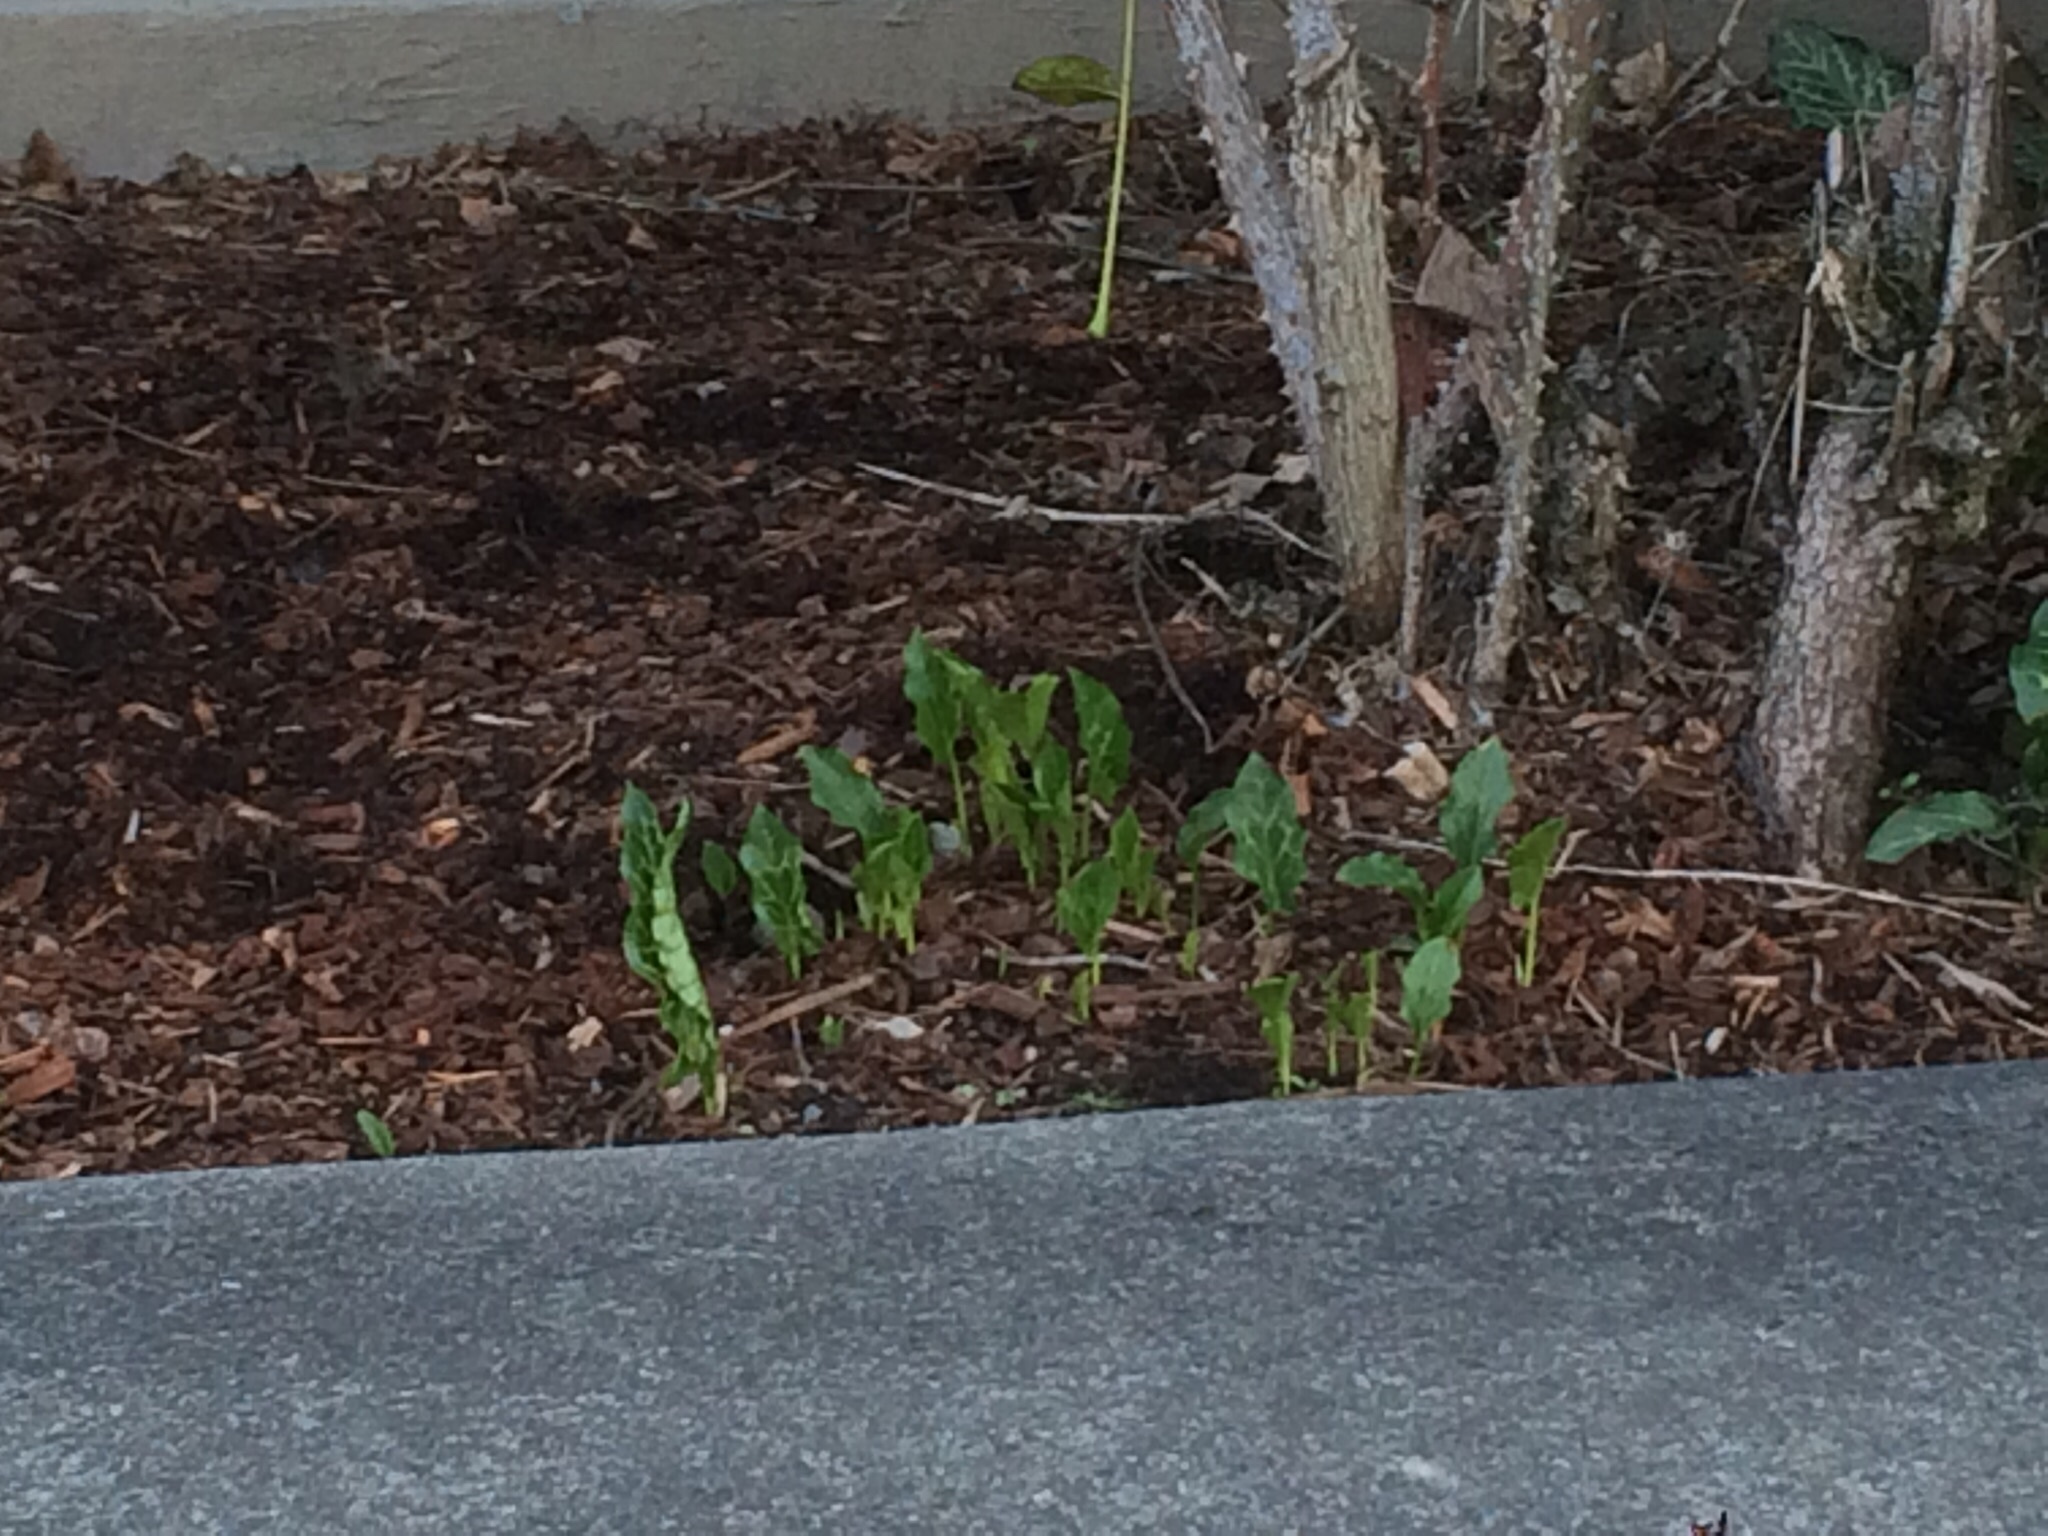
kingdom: Plantae
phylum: Tracheophyta
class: Liliopsida
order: Alismatales
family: Araceae
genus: Arum
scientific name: Arum italicum
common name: Italian lords-and-ladies
